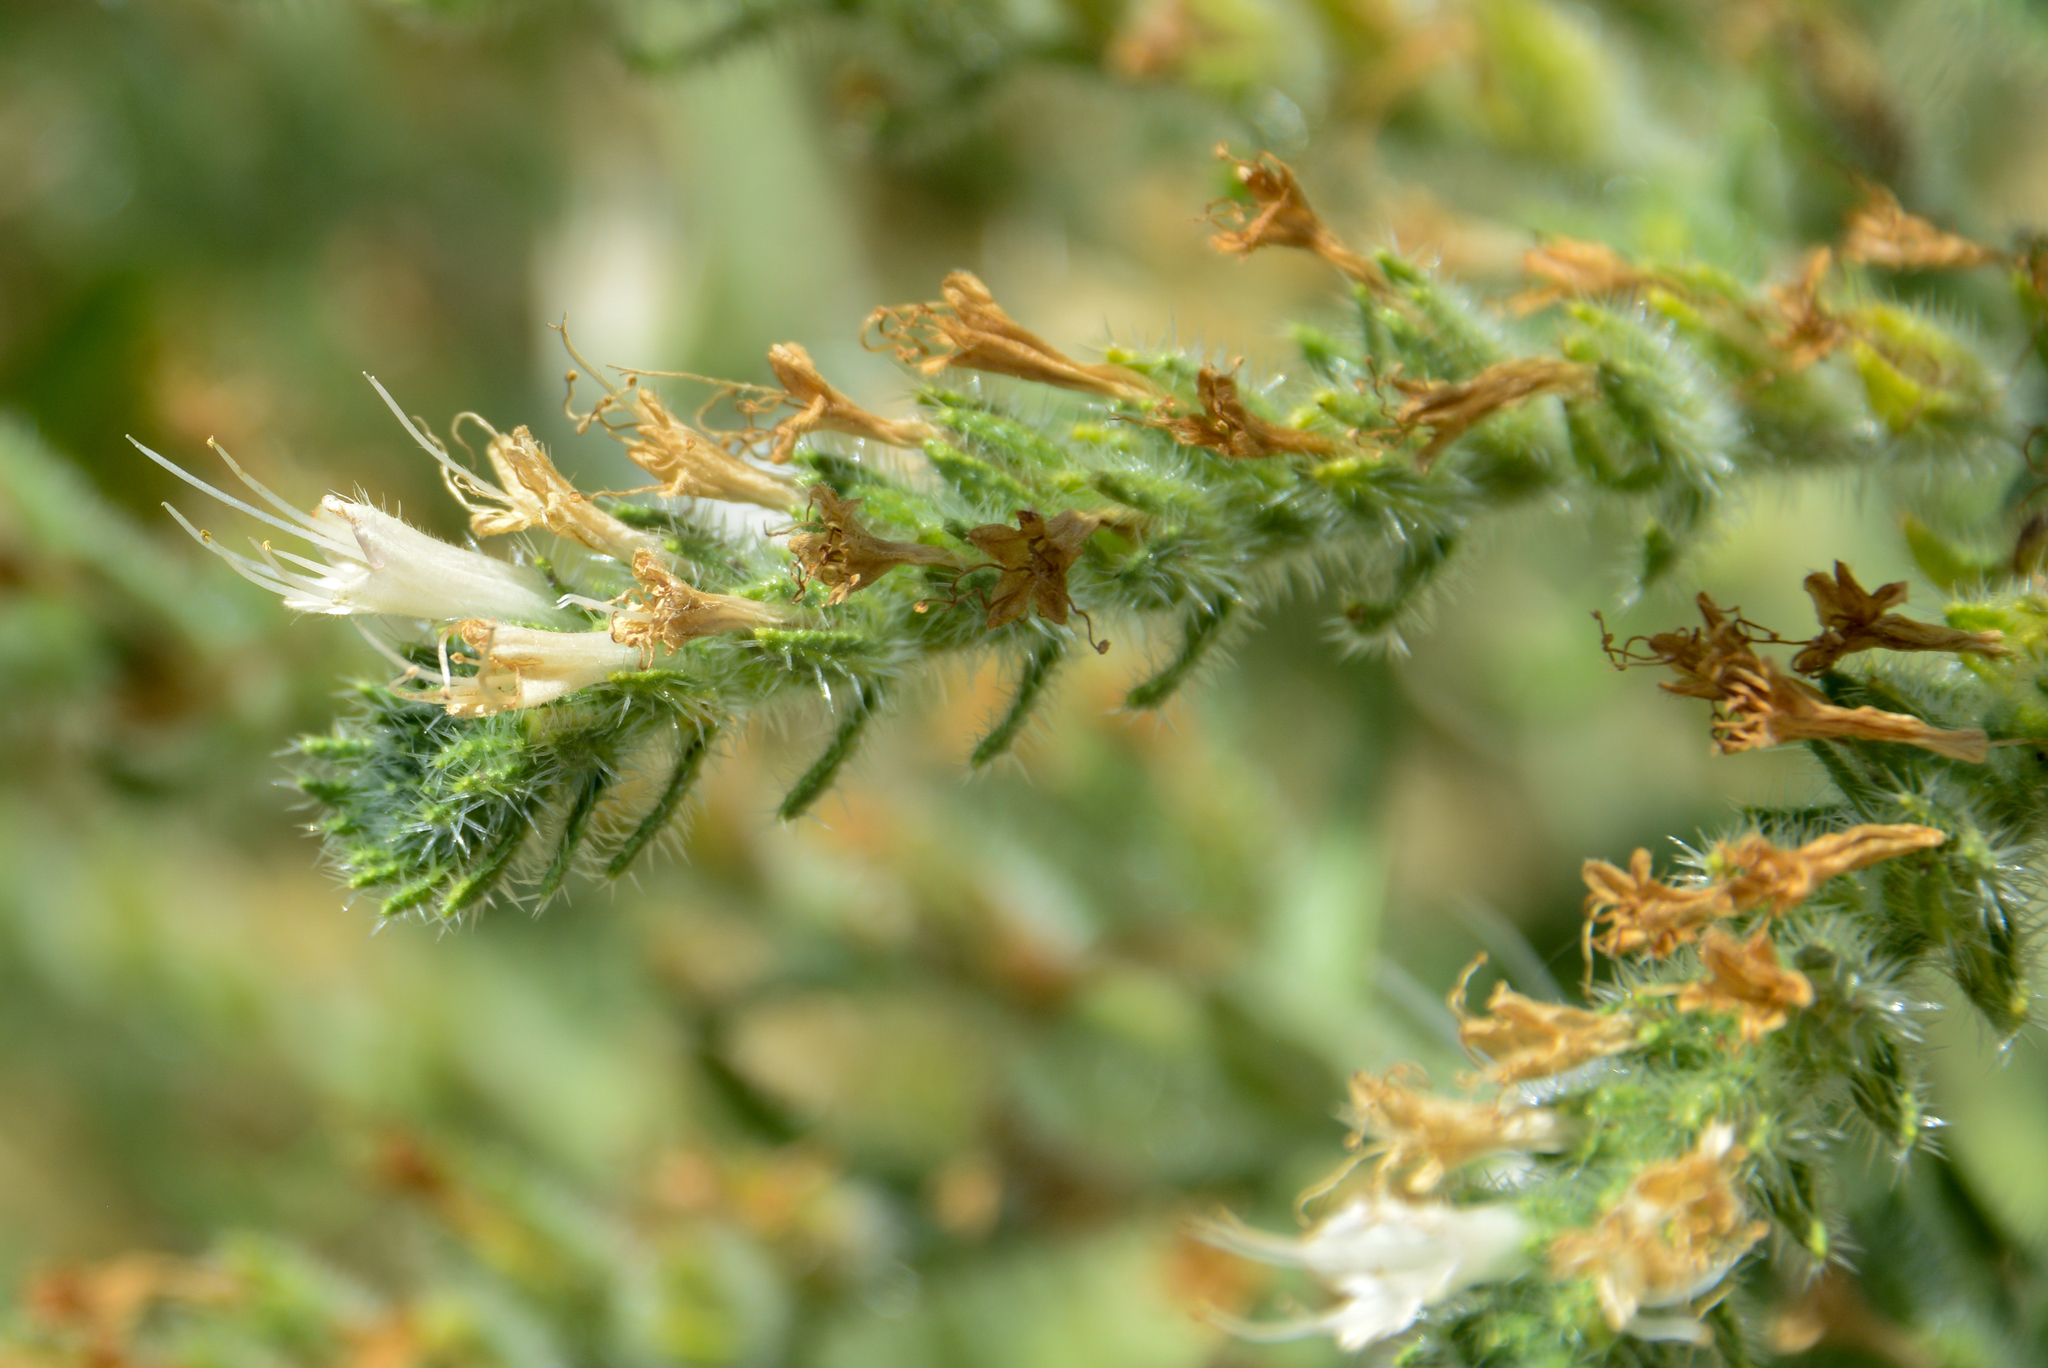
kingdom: Plantae
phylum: Tracheophyta
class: Magnoliopsida
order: Boraginales
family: Boraginaceae
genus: Echium
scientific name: Echium italicum
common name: Italian viper's bugloss
